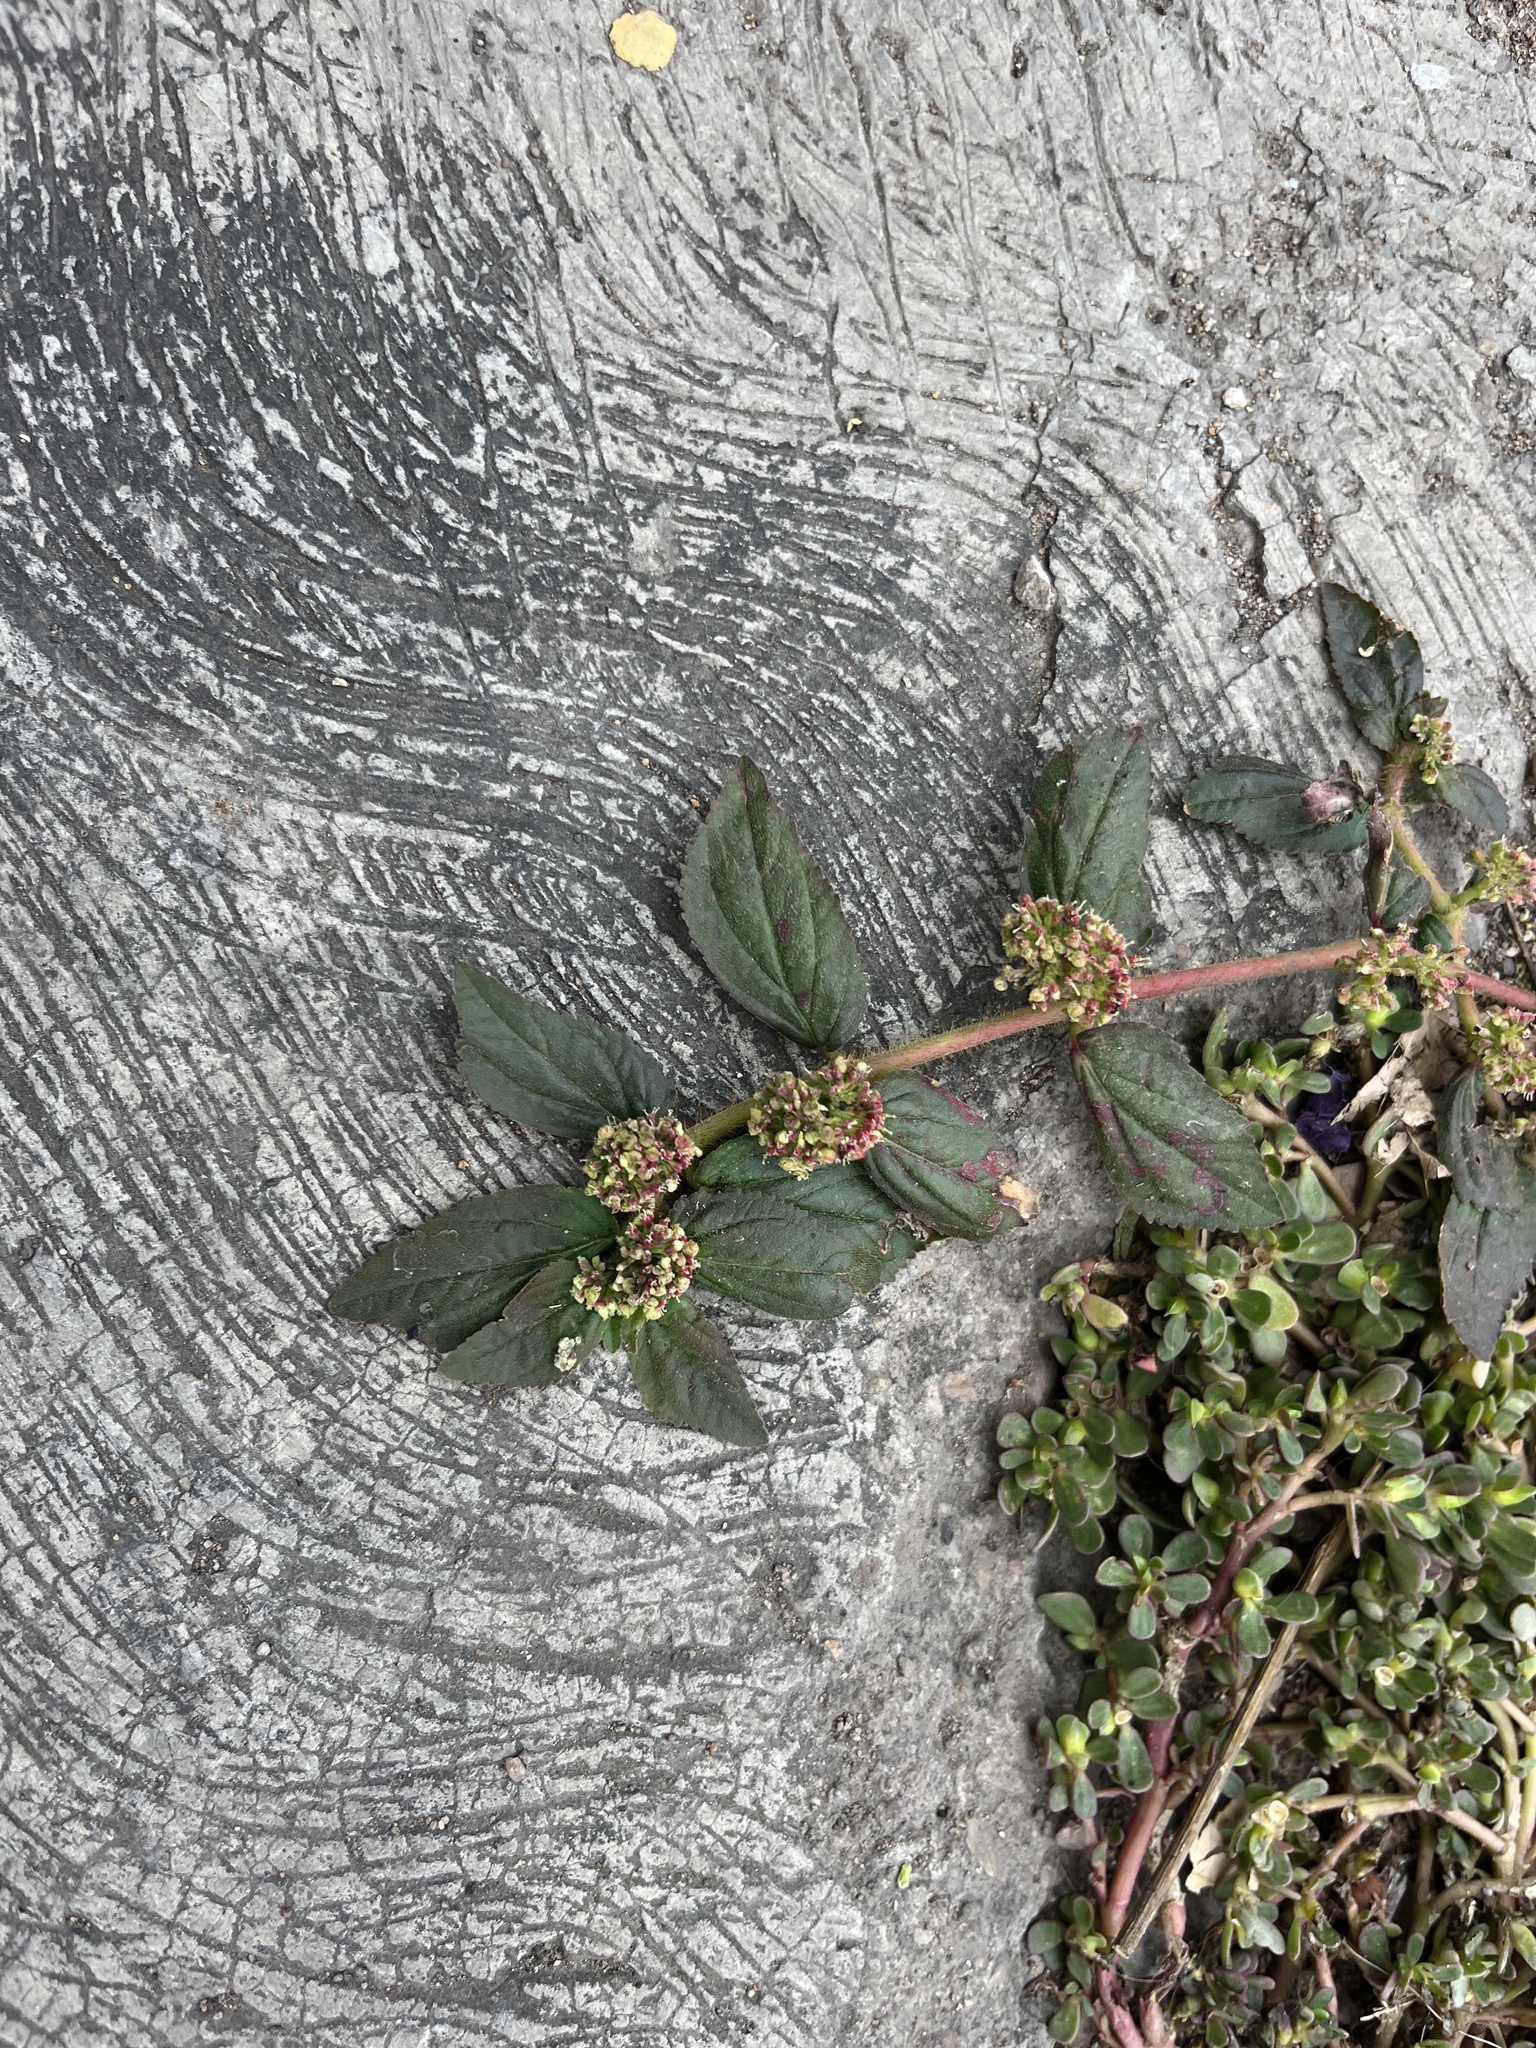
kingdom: Plantae
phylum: Tracheophyta
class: Magnoliopsida
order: Malpighiales
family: Euphorbiaceae
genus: Euphorbia
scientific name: Euphorbia hirta
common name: Pillpod sandmat
